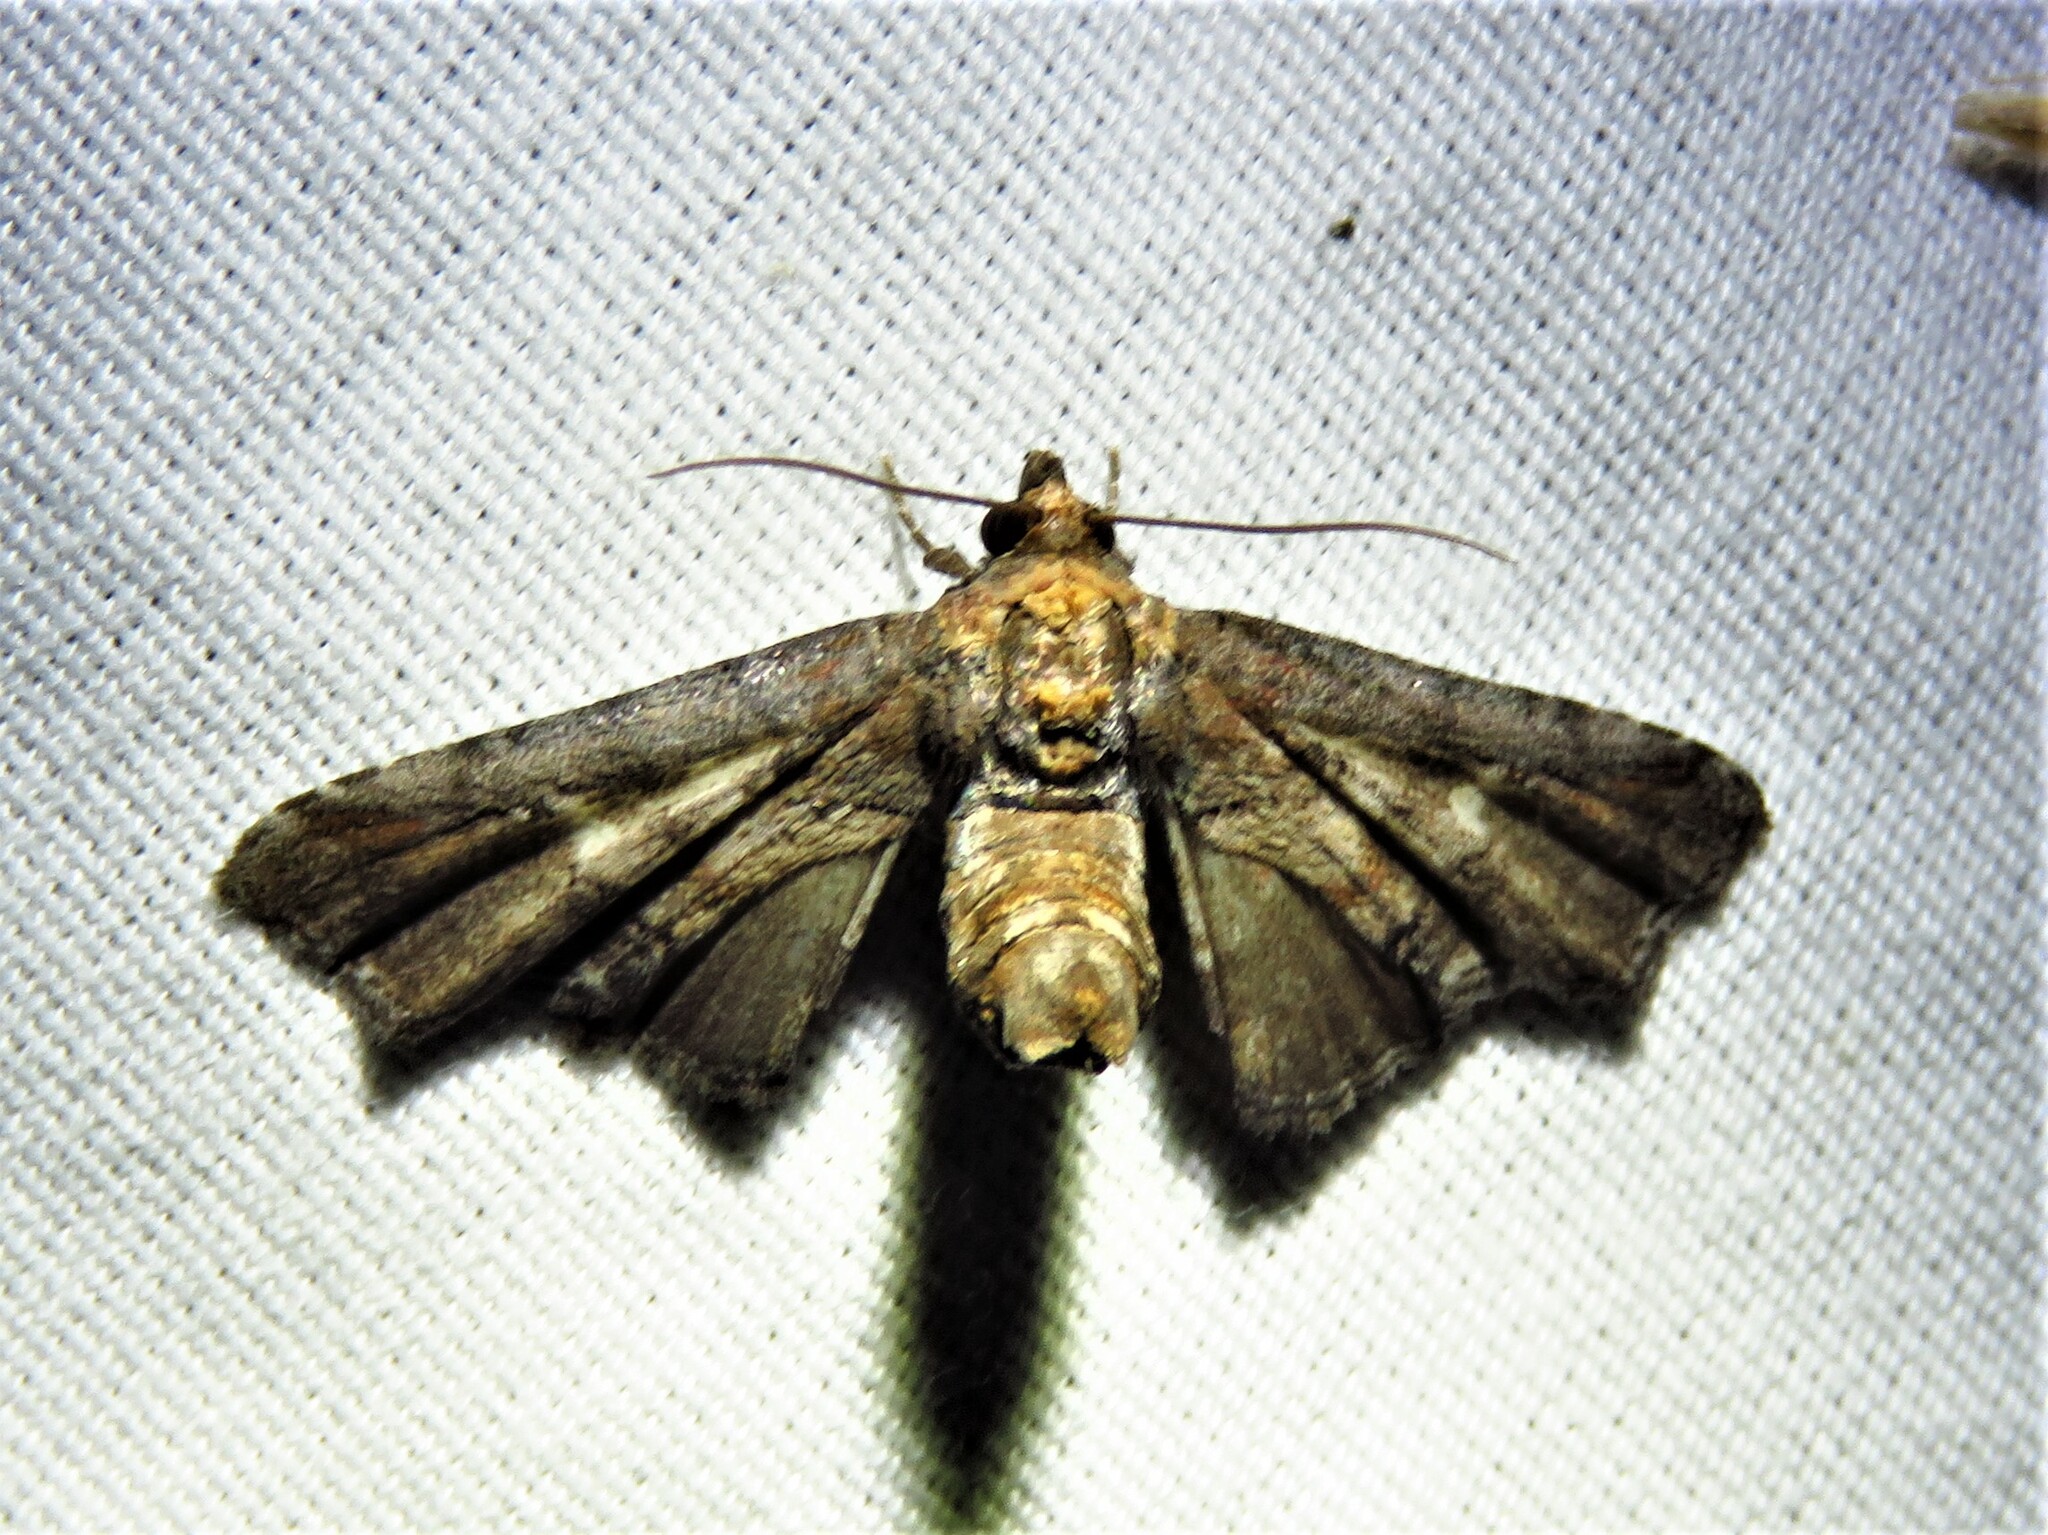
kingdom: Animalia
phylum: Arthropoda
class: Insecta
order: Lepidoptera
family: Euteliidae
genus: Marathyssa
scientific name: Marathyssa inficita
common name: Dark marathyssa moth
